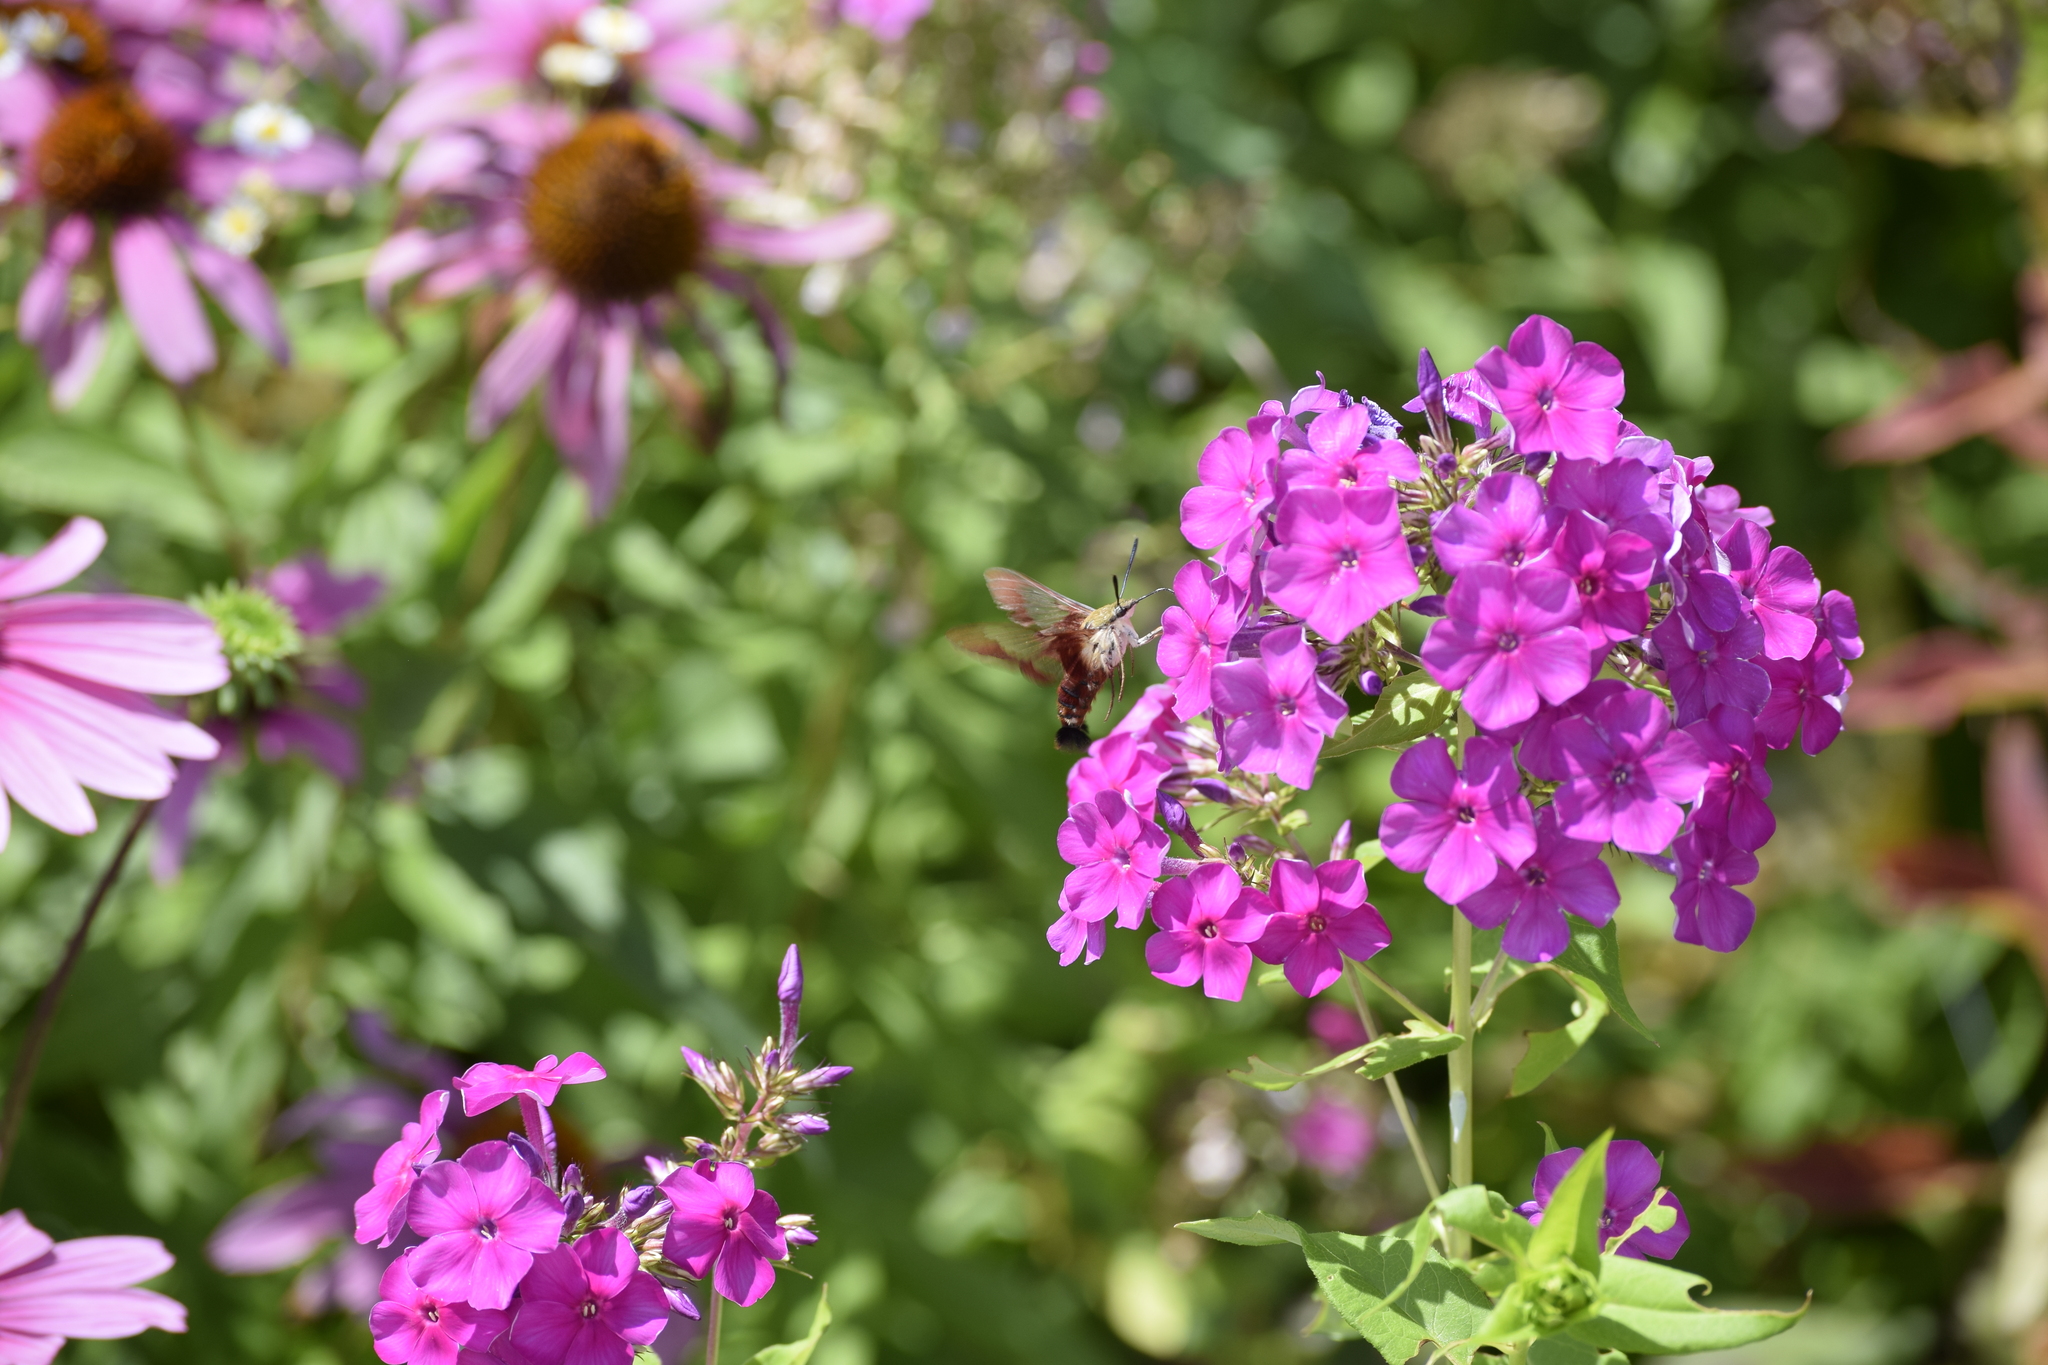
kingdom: Animalia
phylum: Arthropoda
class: Insecta
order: Lepidoptera
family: Sphingidae
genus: Hemaris
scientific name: Hemaris thysbe
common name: Common clear-wing
